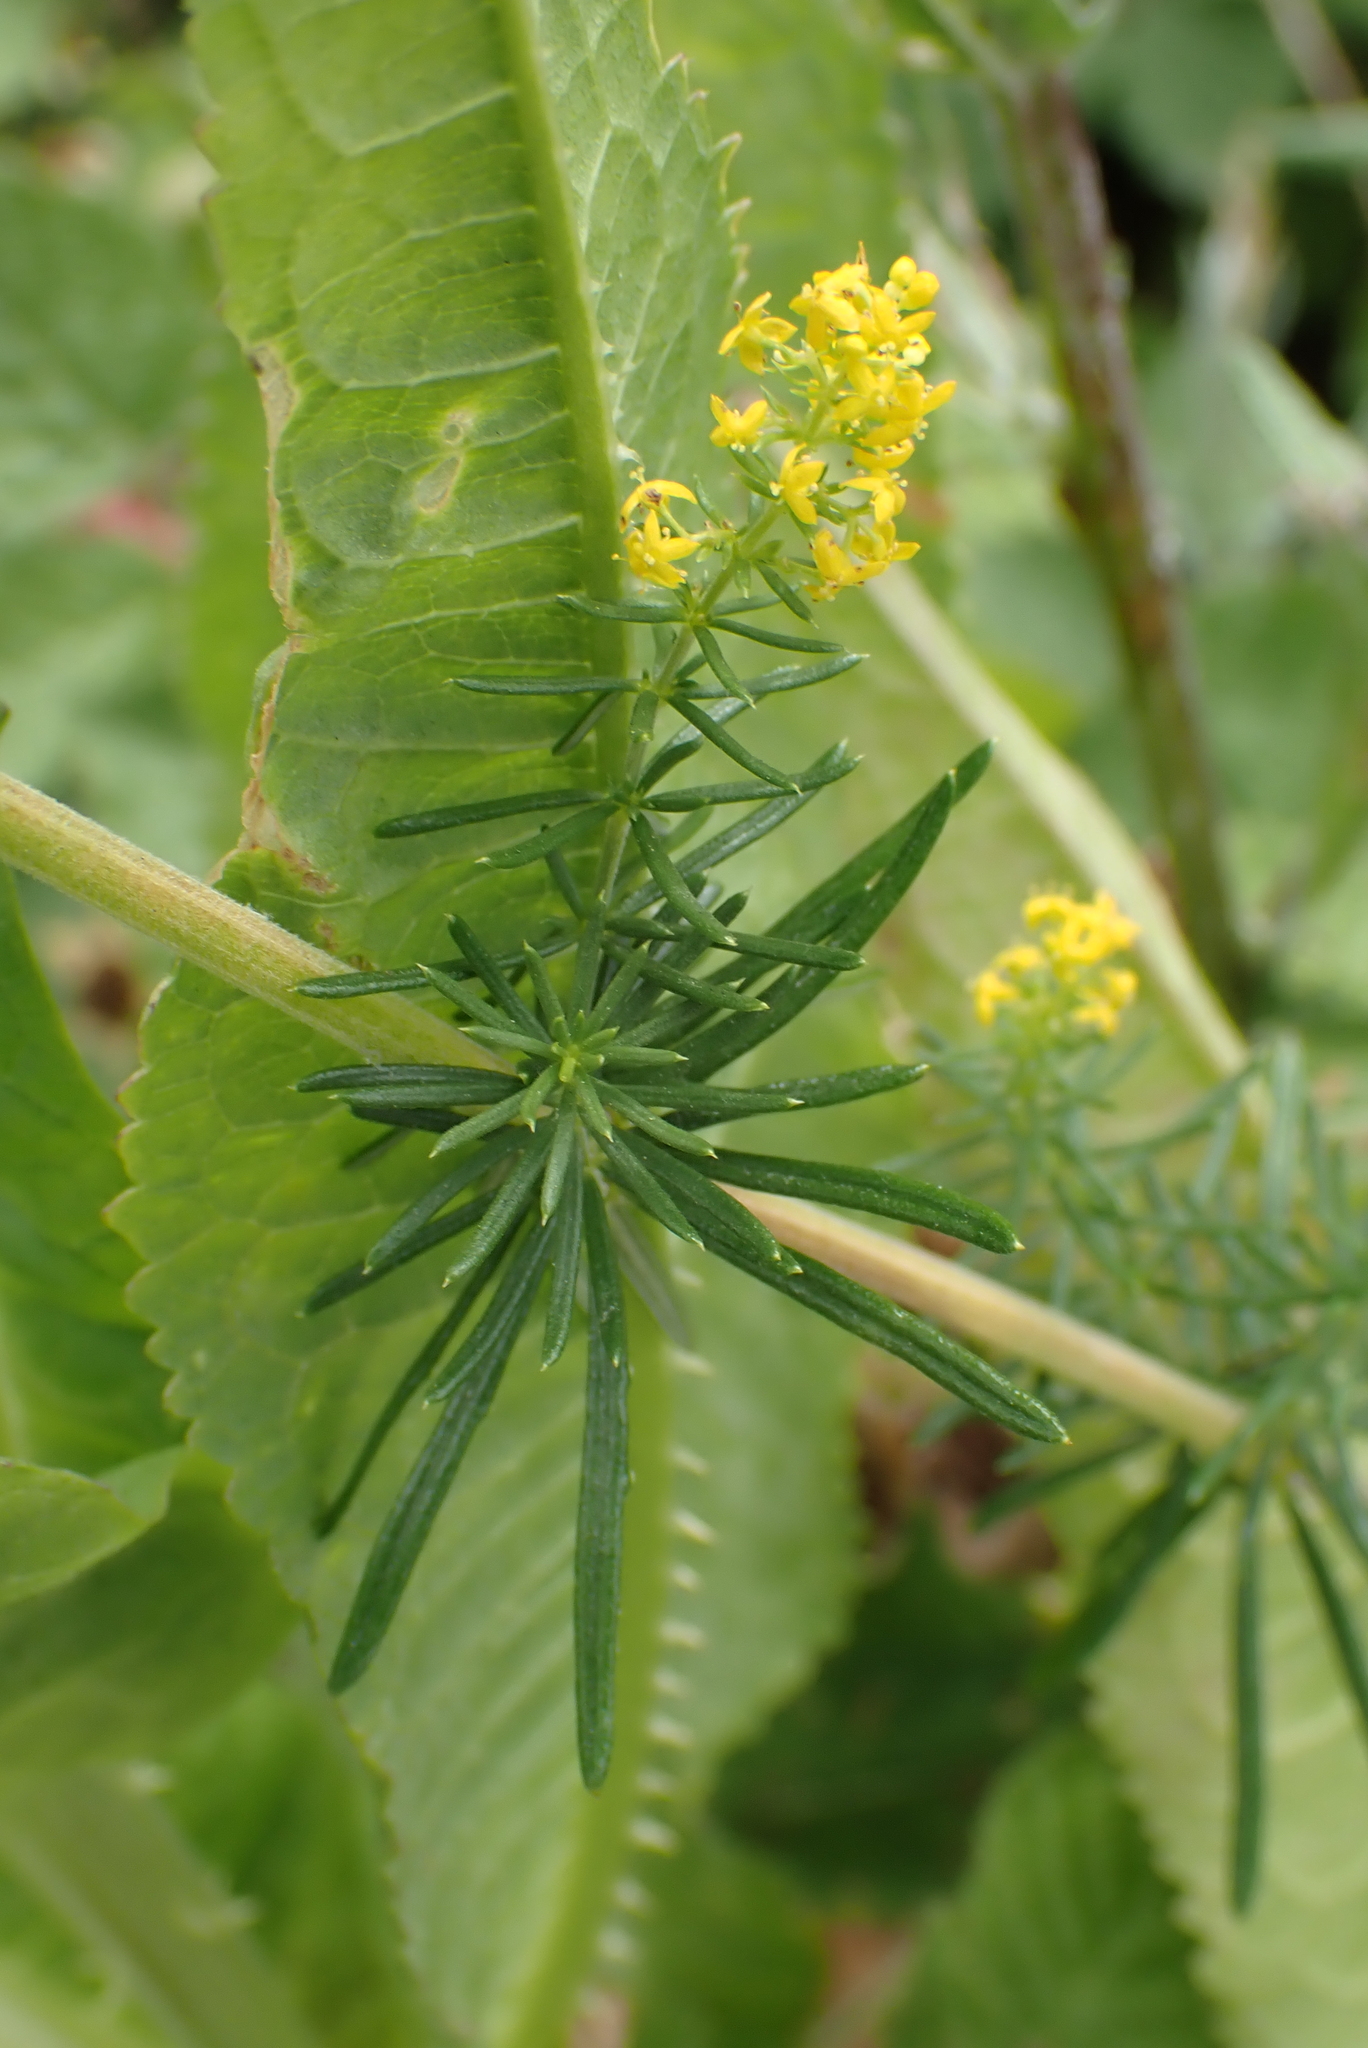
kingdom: Plantae
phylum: Tracheophyta
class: Magnoliopsida
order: Gentianales
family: Rubiaceae
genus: Galium
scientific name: Galium verum
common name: Lady's bedstraw
